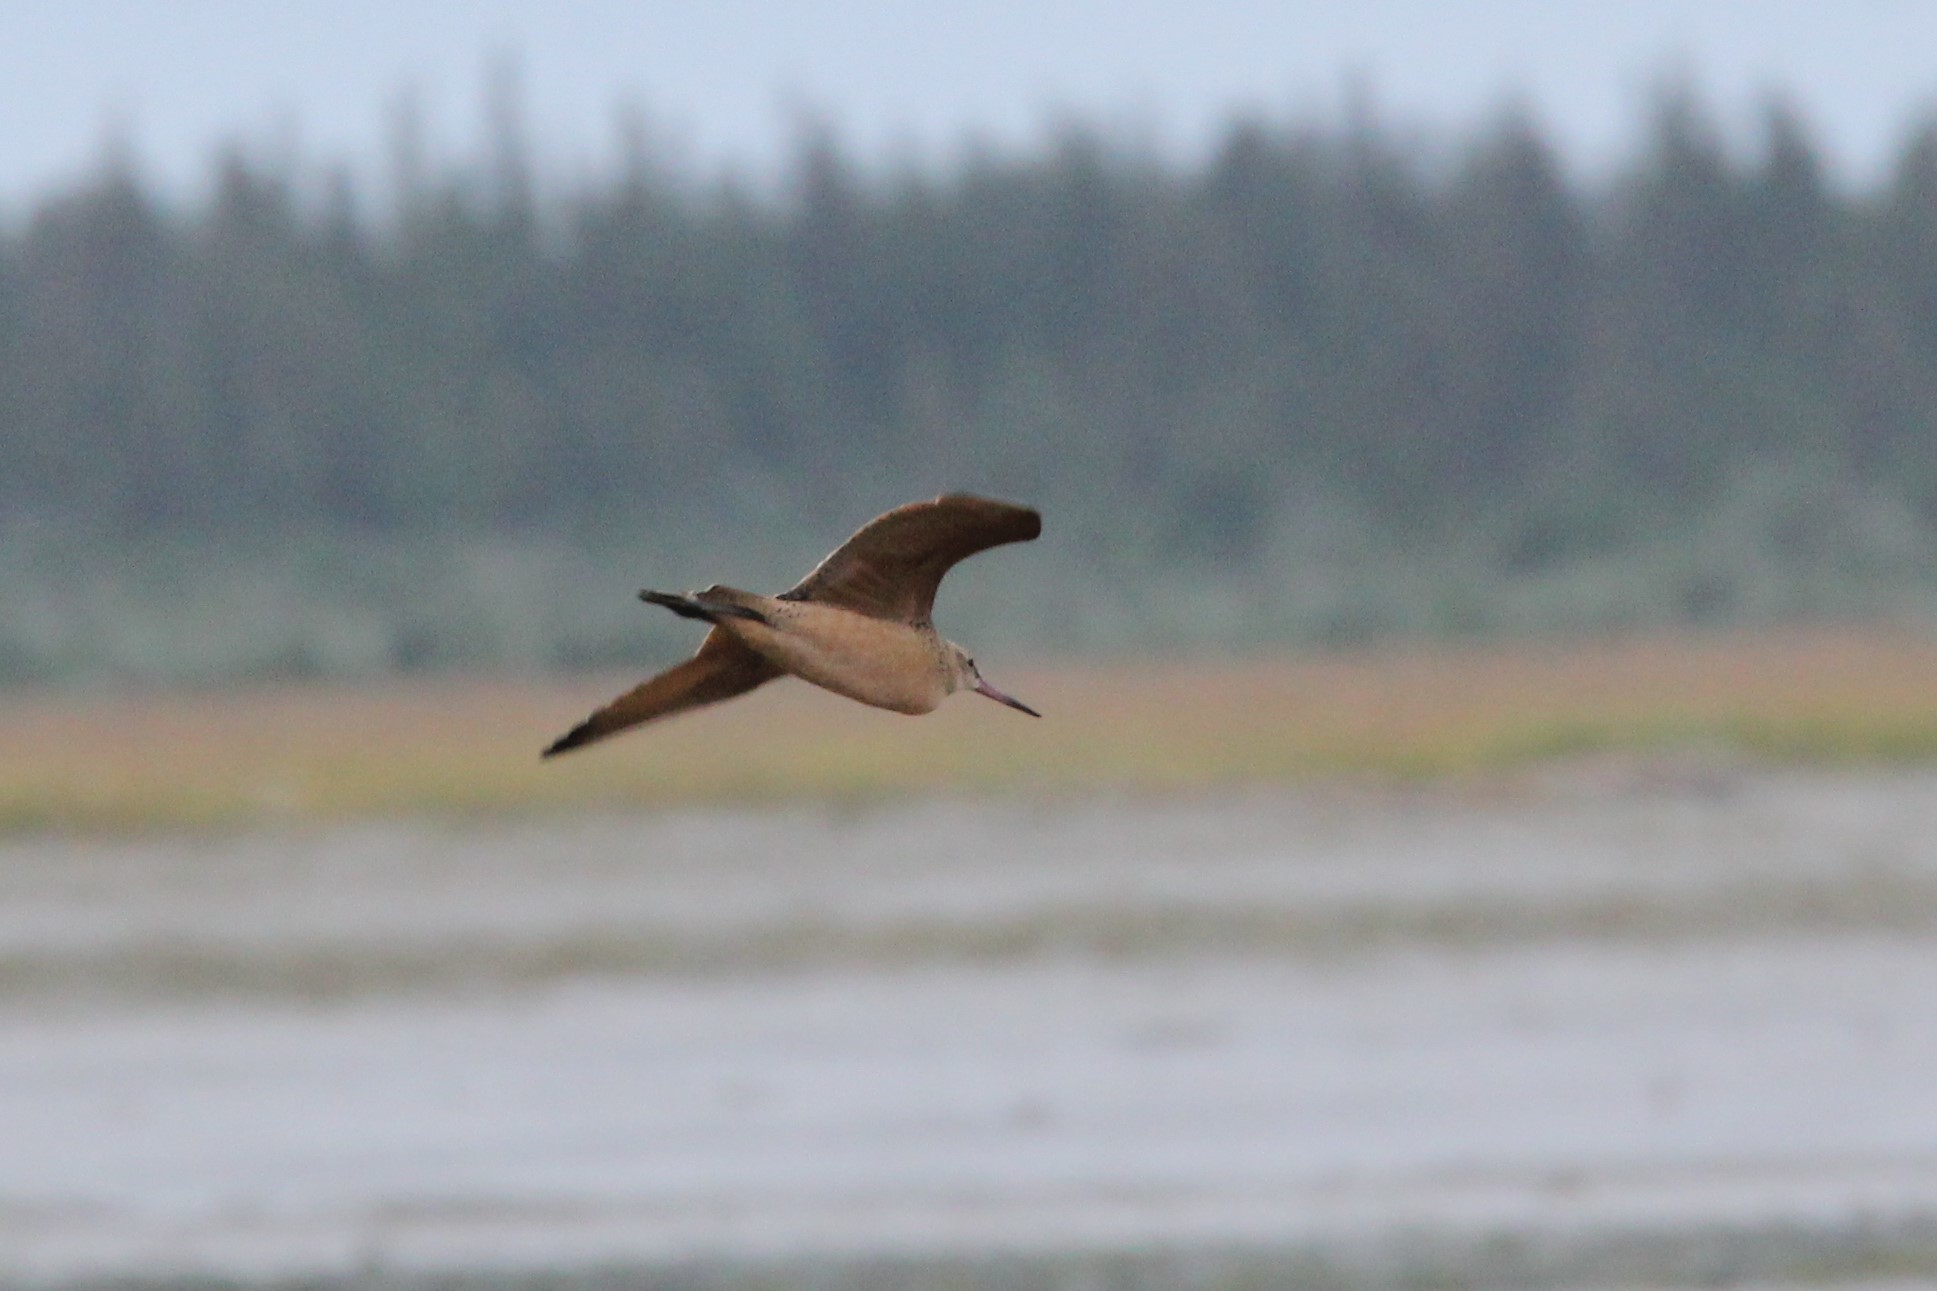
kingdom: Animalia
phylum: Chordata
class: Aves
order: Charadriiformes
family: Scolopacidae
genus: Limosa
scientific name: Limosa fedoa
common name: Marbled godwit
